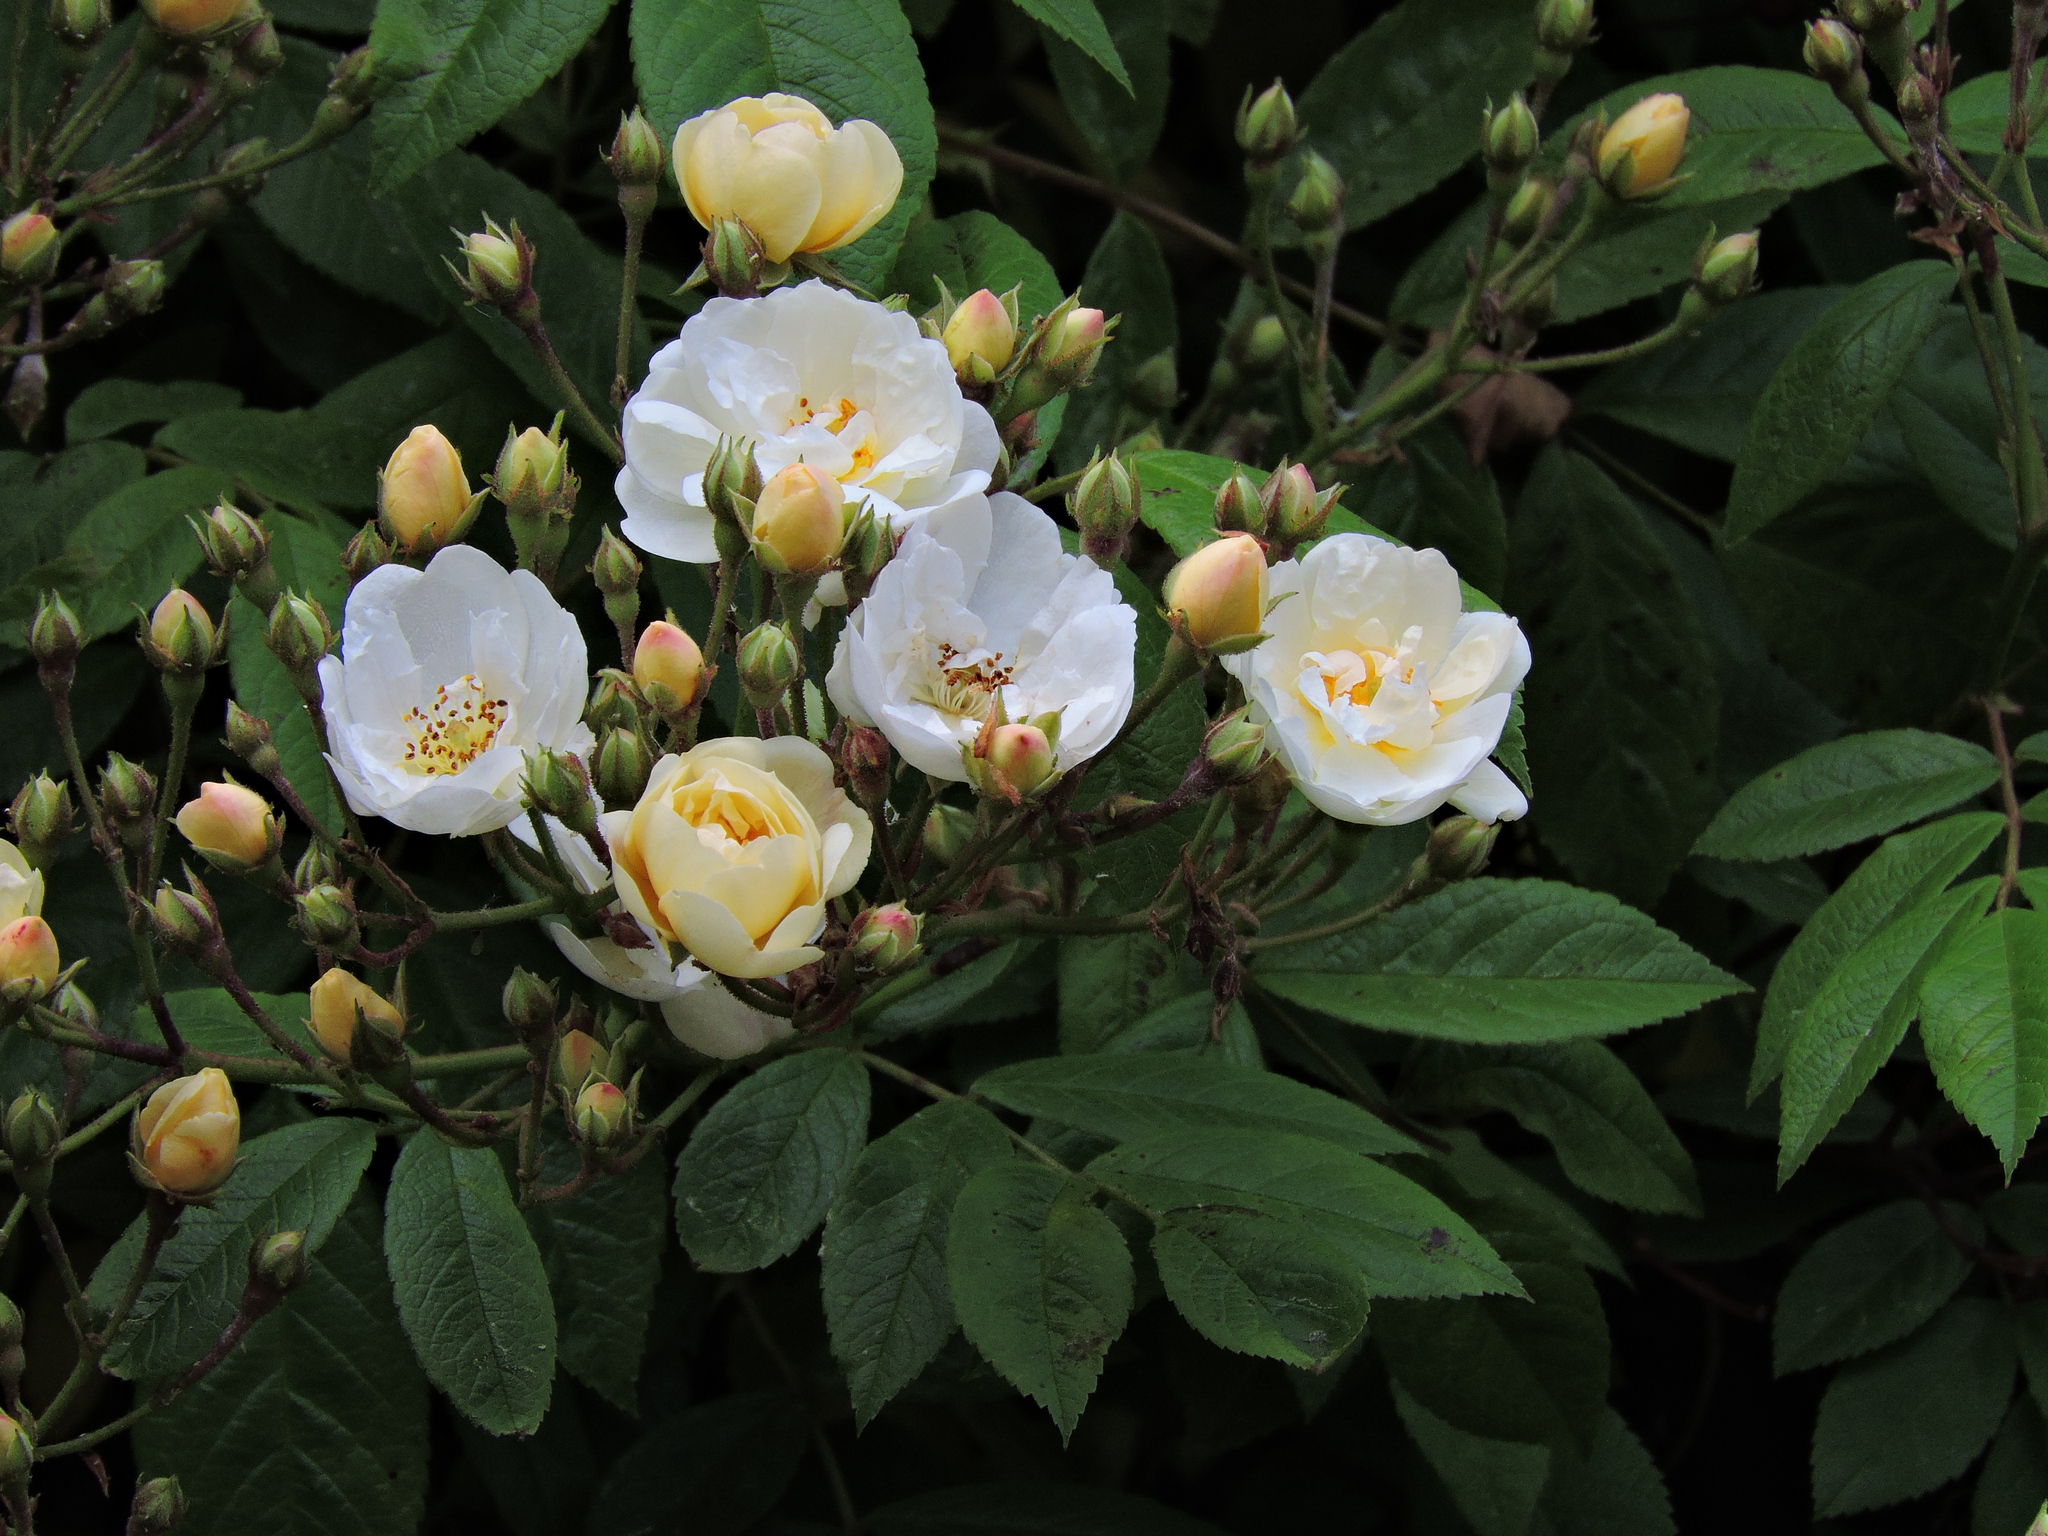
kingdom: Plantae
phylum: Tracheophyta
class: Magnoliopsida
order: Rosales
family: Rosaceae
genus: Rosa
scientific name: Rosa multiflora
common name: Multiflora rose
